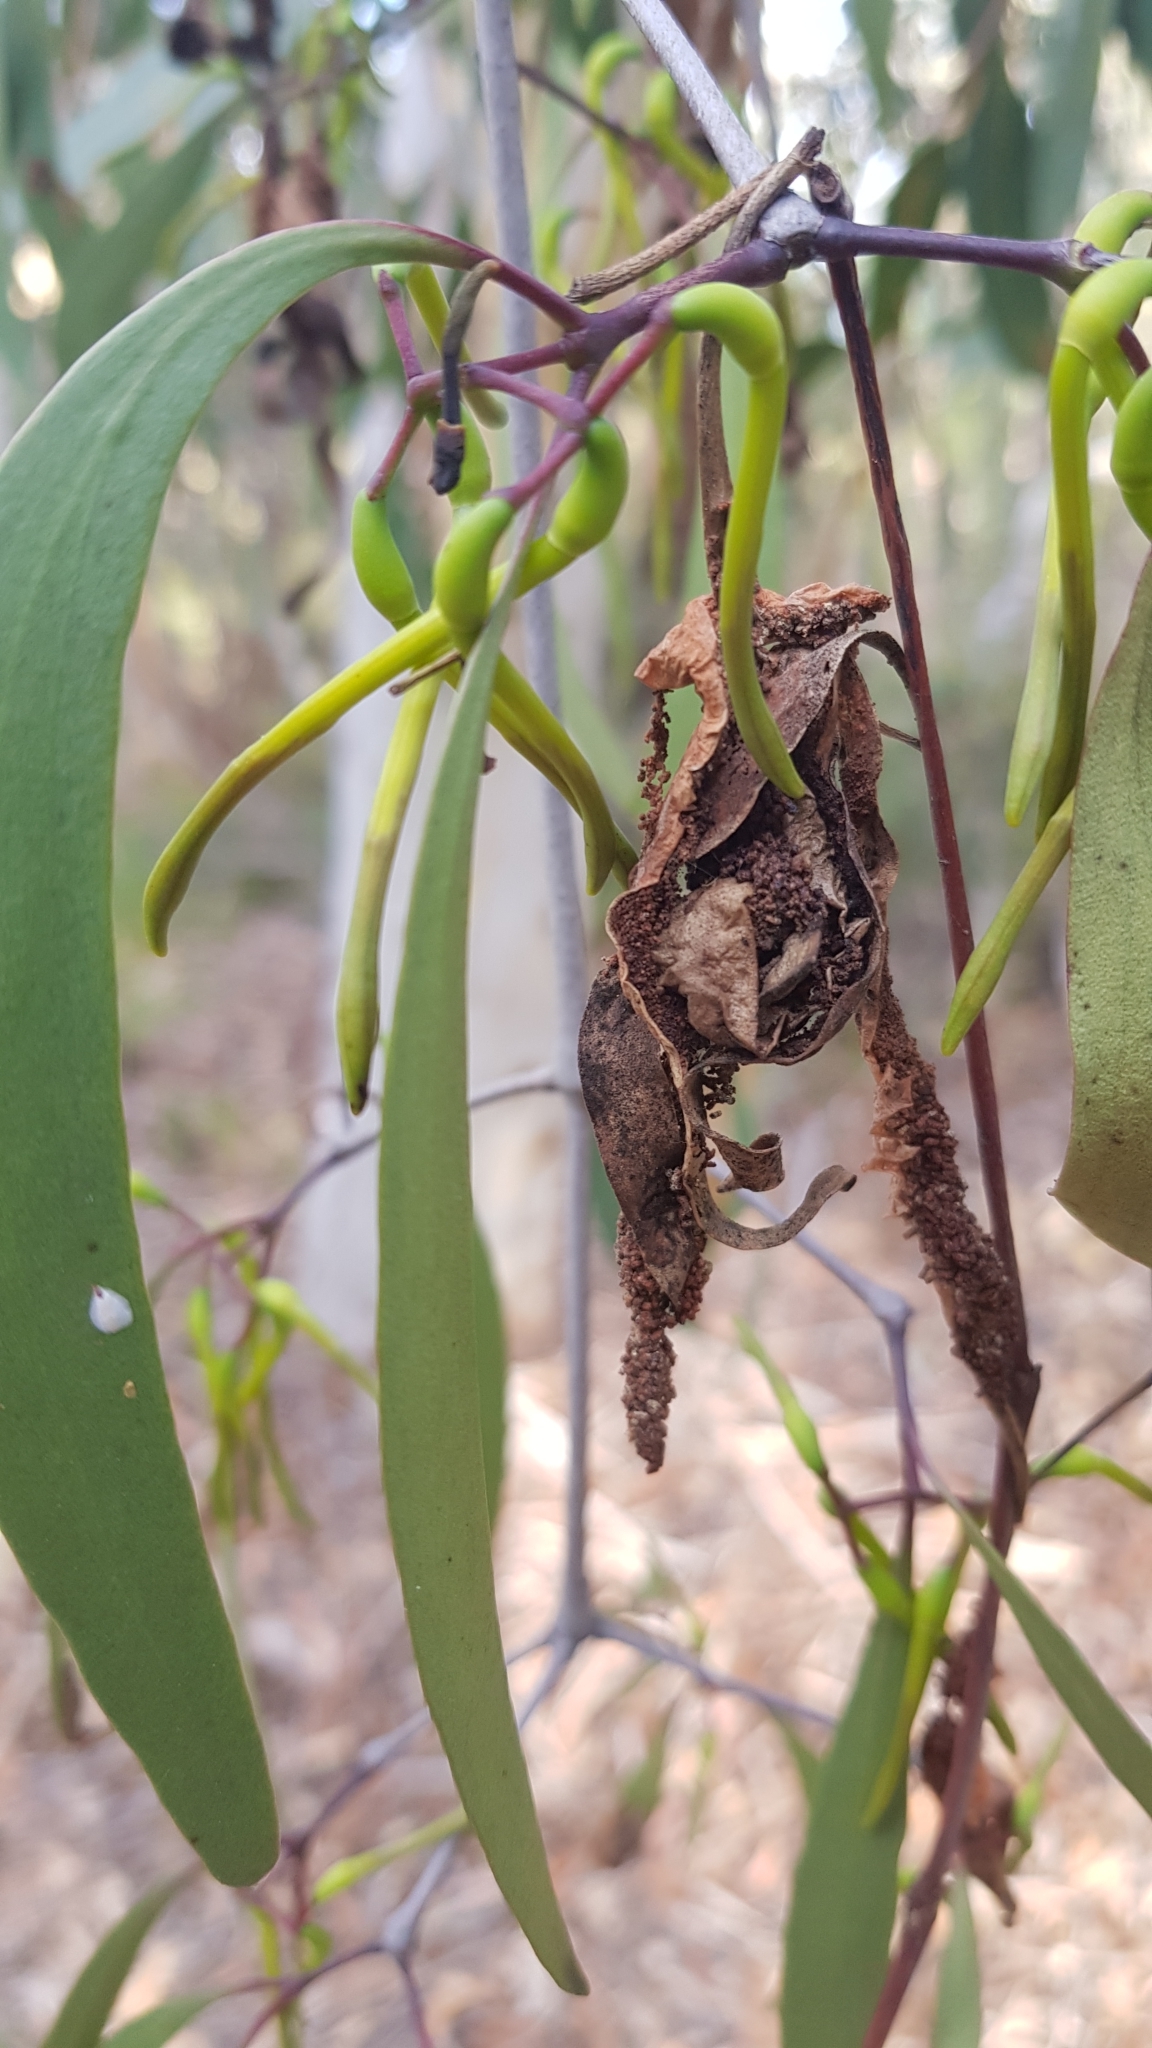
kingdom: Plantae
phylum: Tracheophyta
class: Magnoliopsida
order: Santalales
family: Loranthaceae
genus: Muellerina
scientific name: Muellerina eucalyptoides
